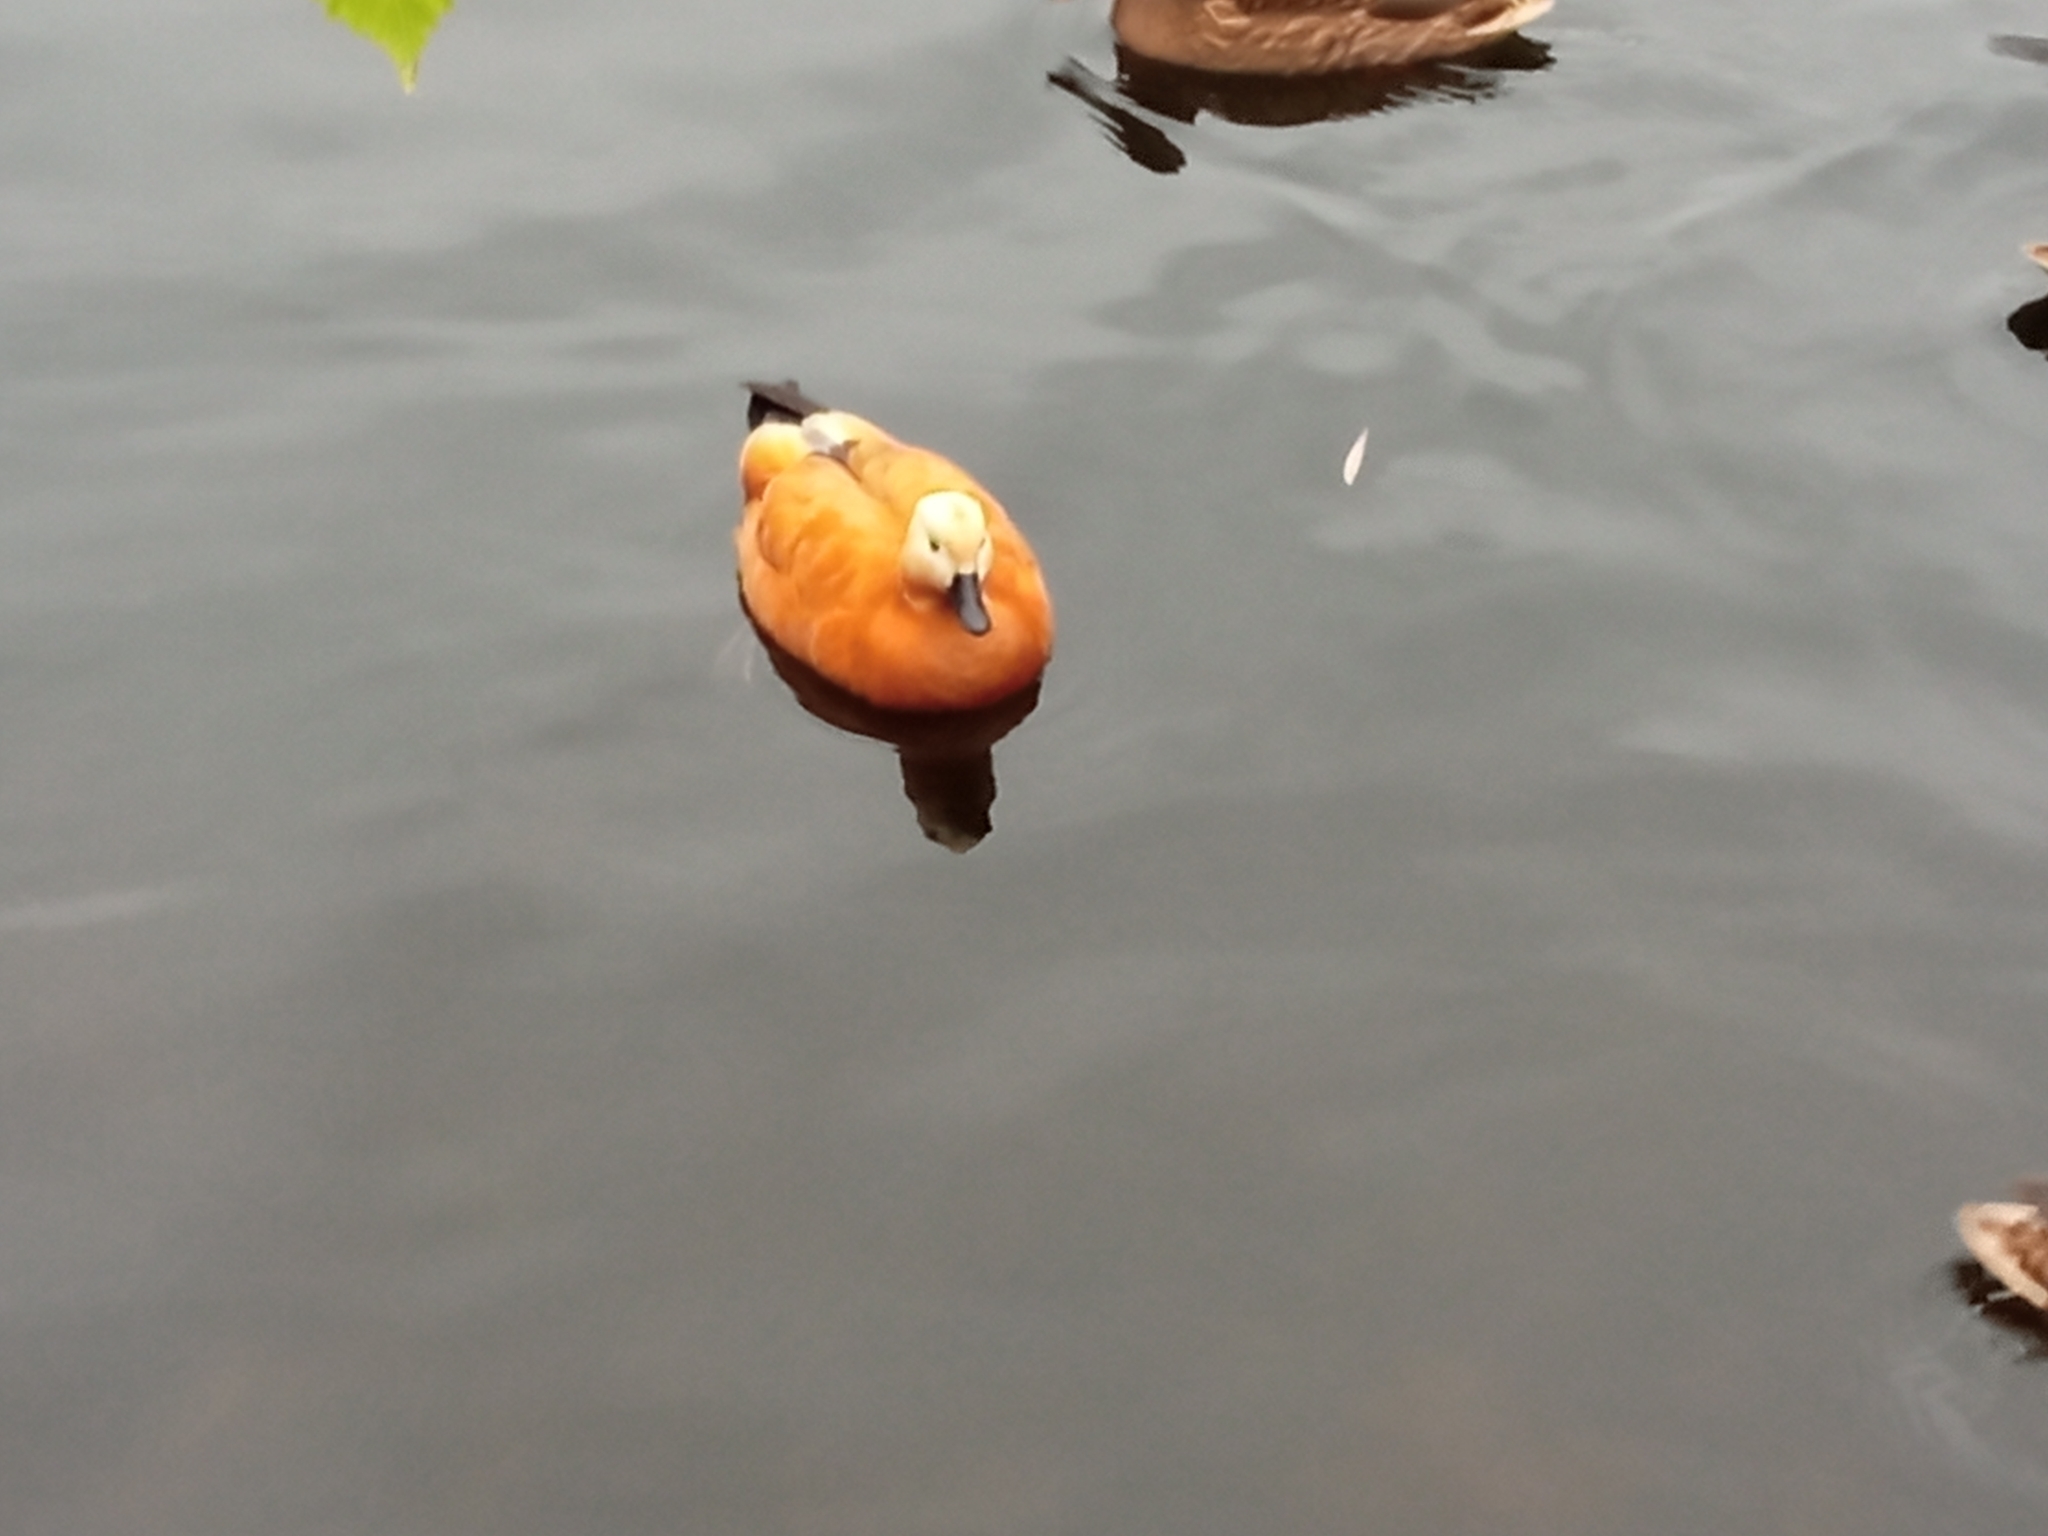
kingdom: Animalia
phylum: Chordata
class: Aves
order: Anseriformes
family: Anatidae
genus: Tadorna
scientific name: Tadorna ferruginea
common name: Ruddy shelduck
